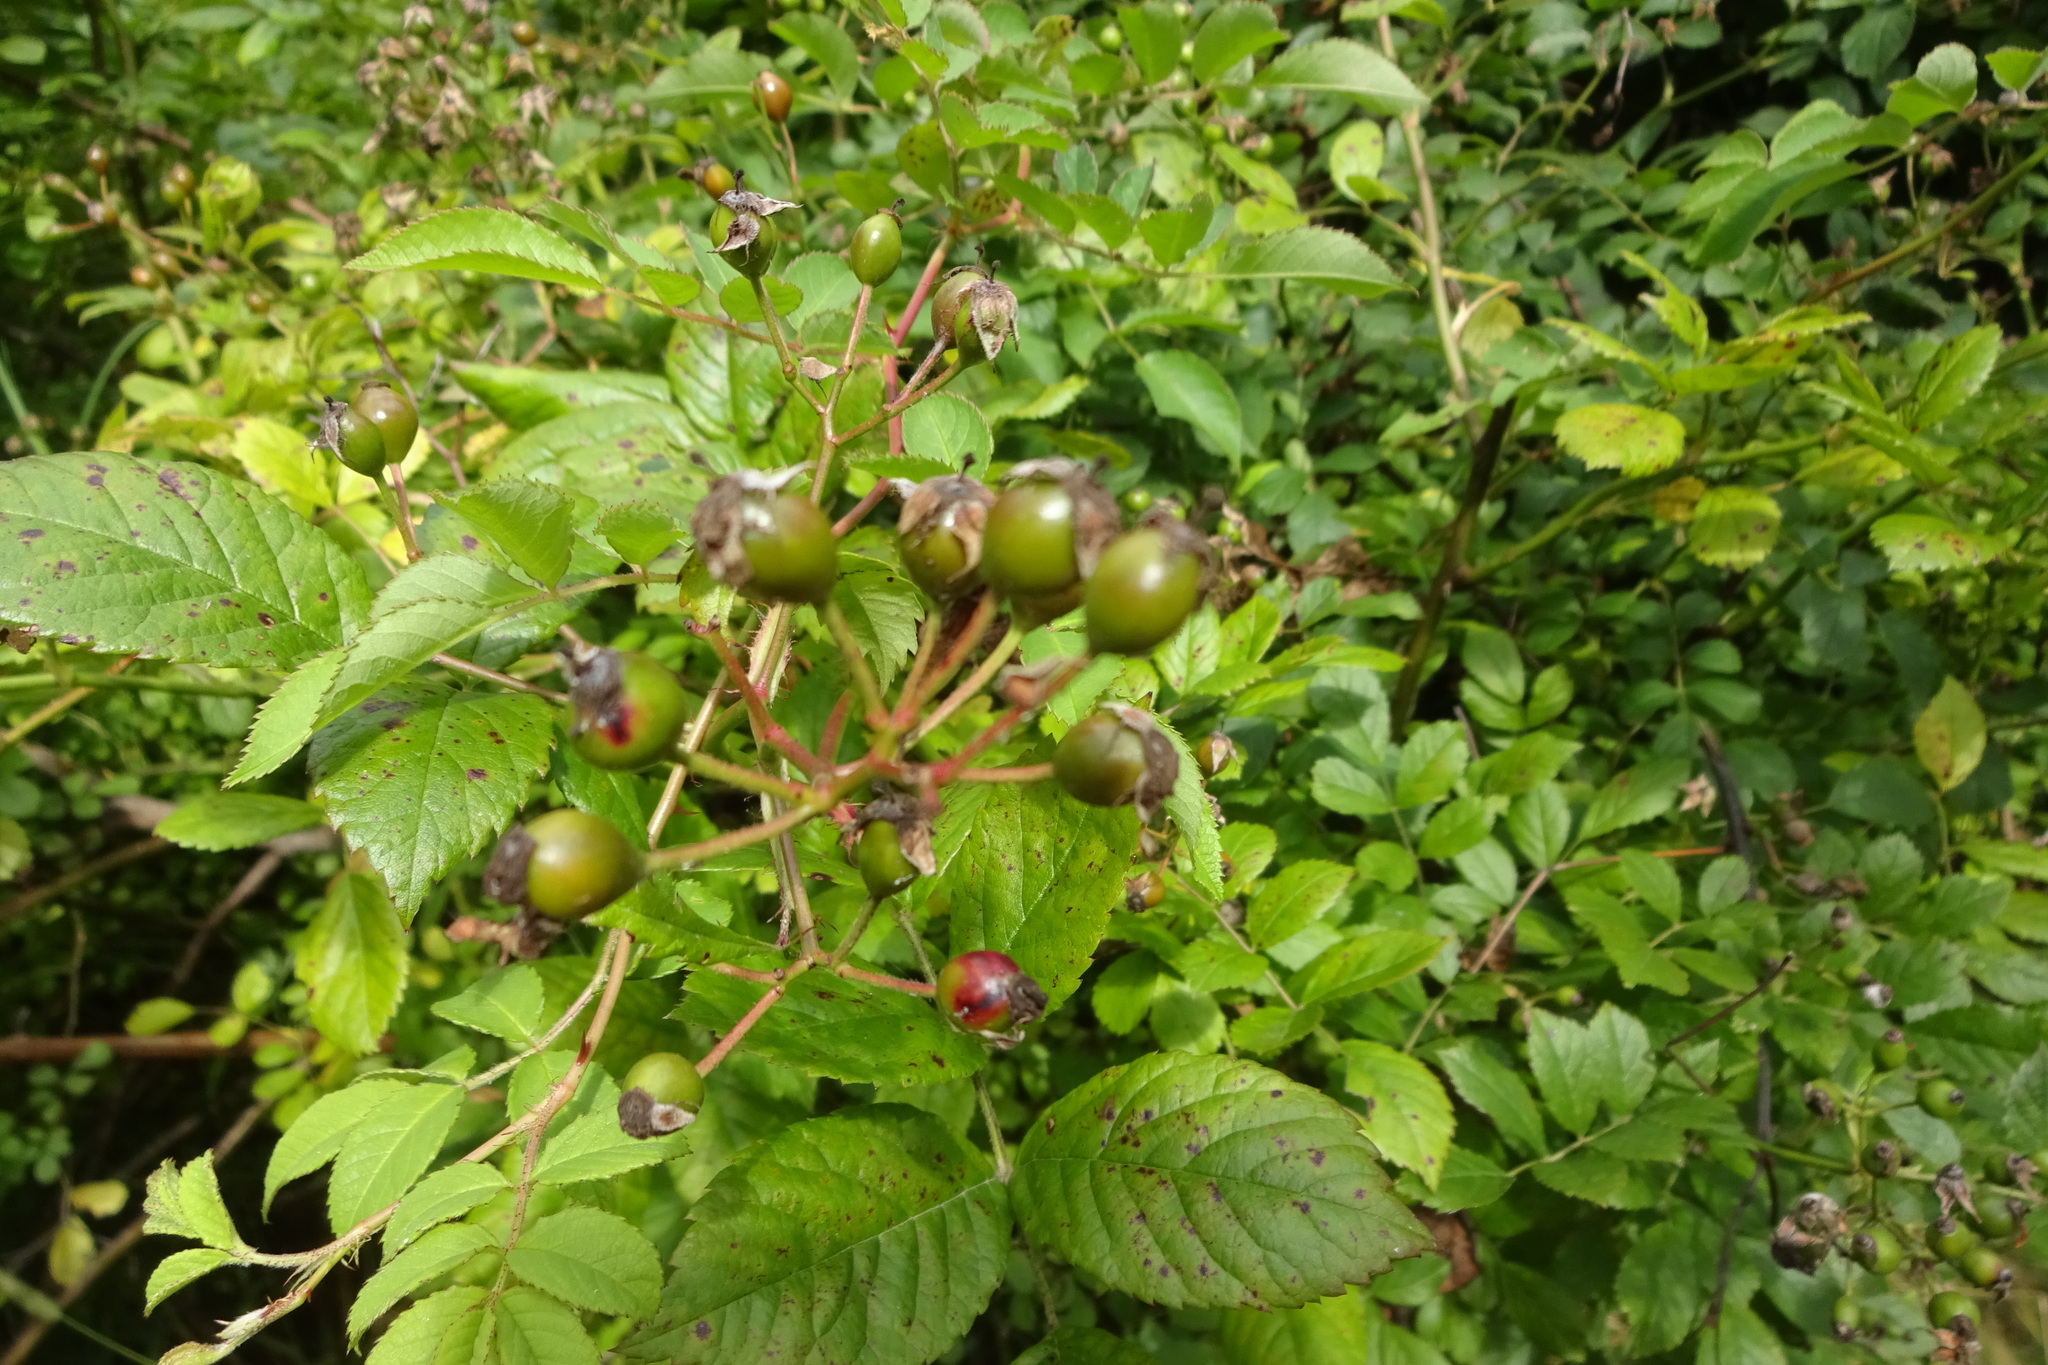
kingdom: Plantae
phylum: Tracheophyta
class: Magnoliopsida
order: Rosales
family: Rosaceae
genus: Rosa
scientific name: Rosa multiflora
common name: Multiflora rose
